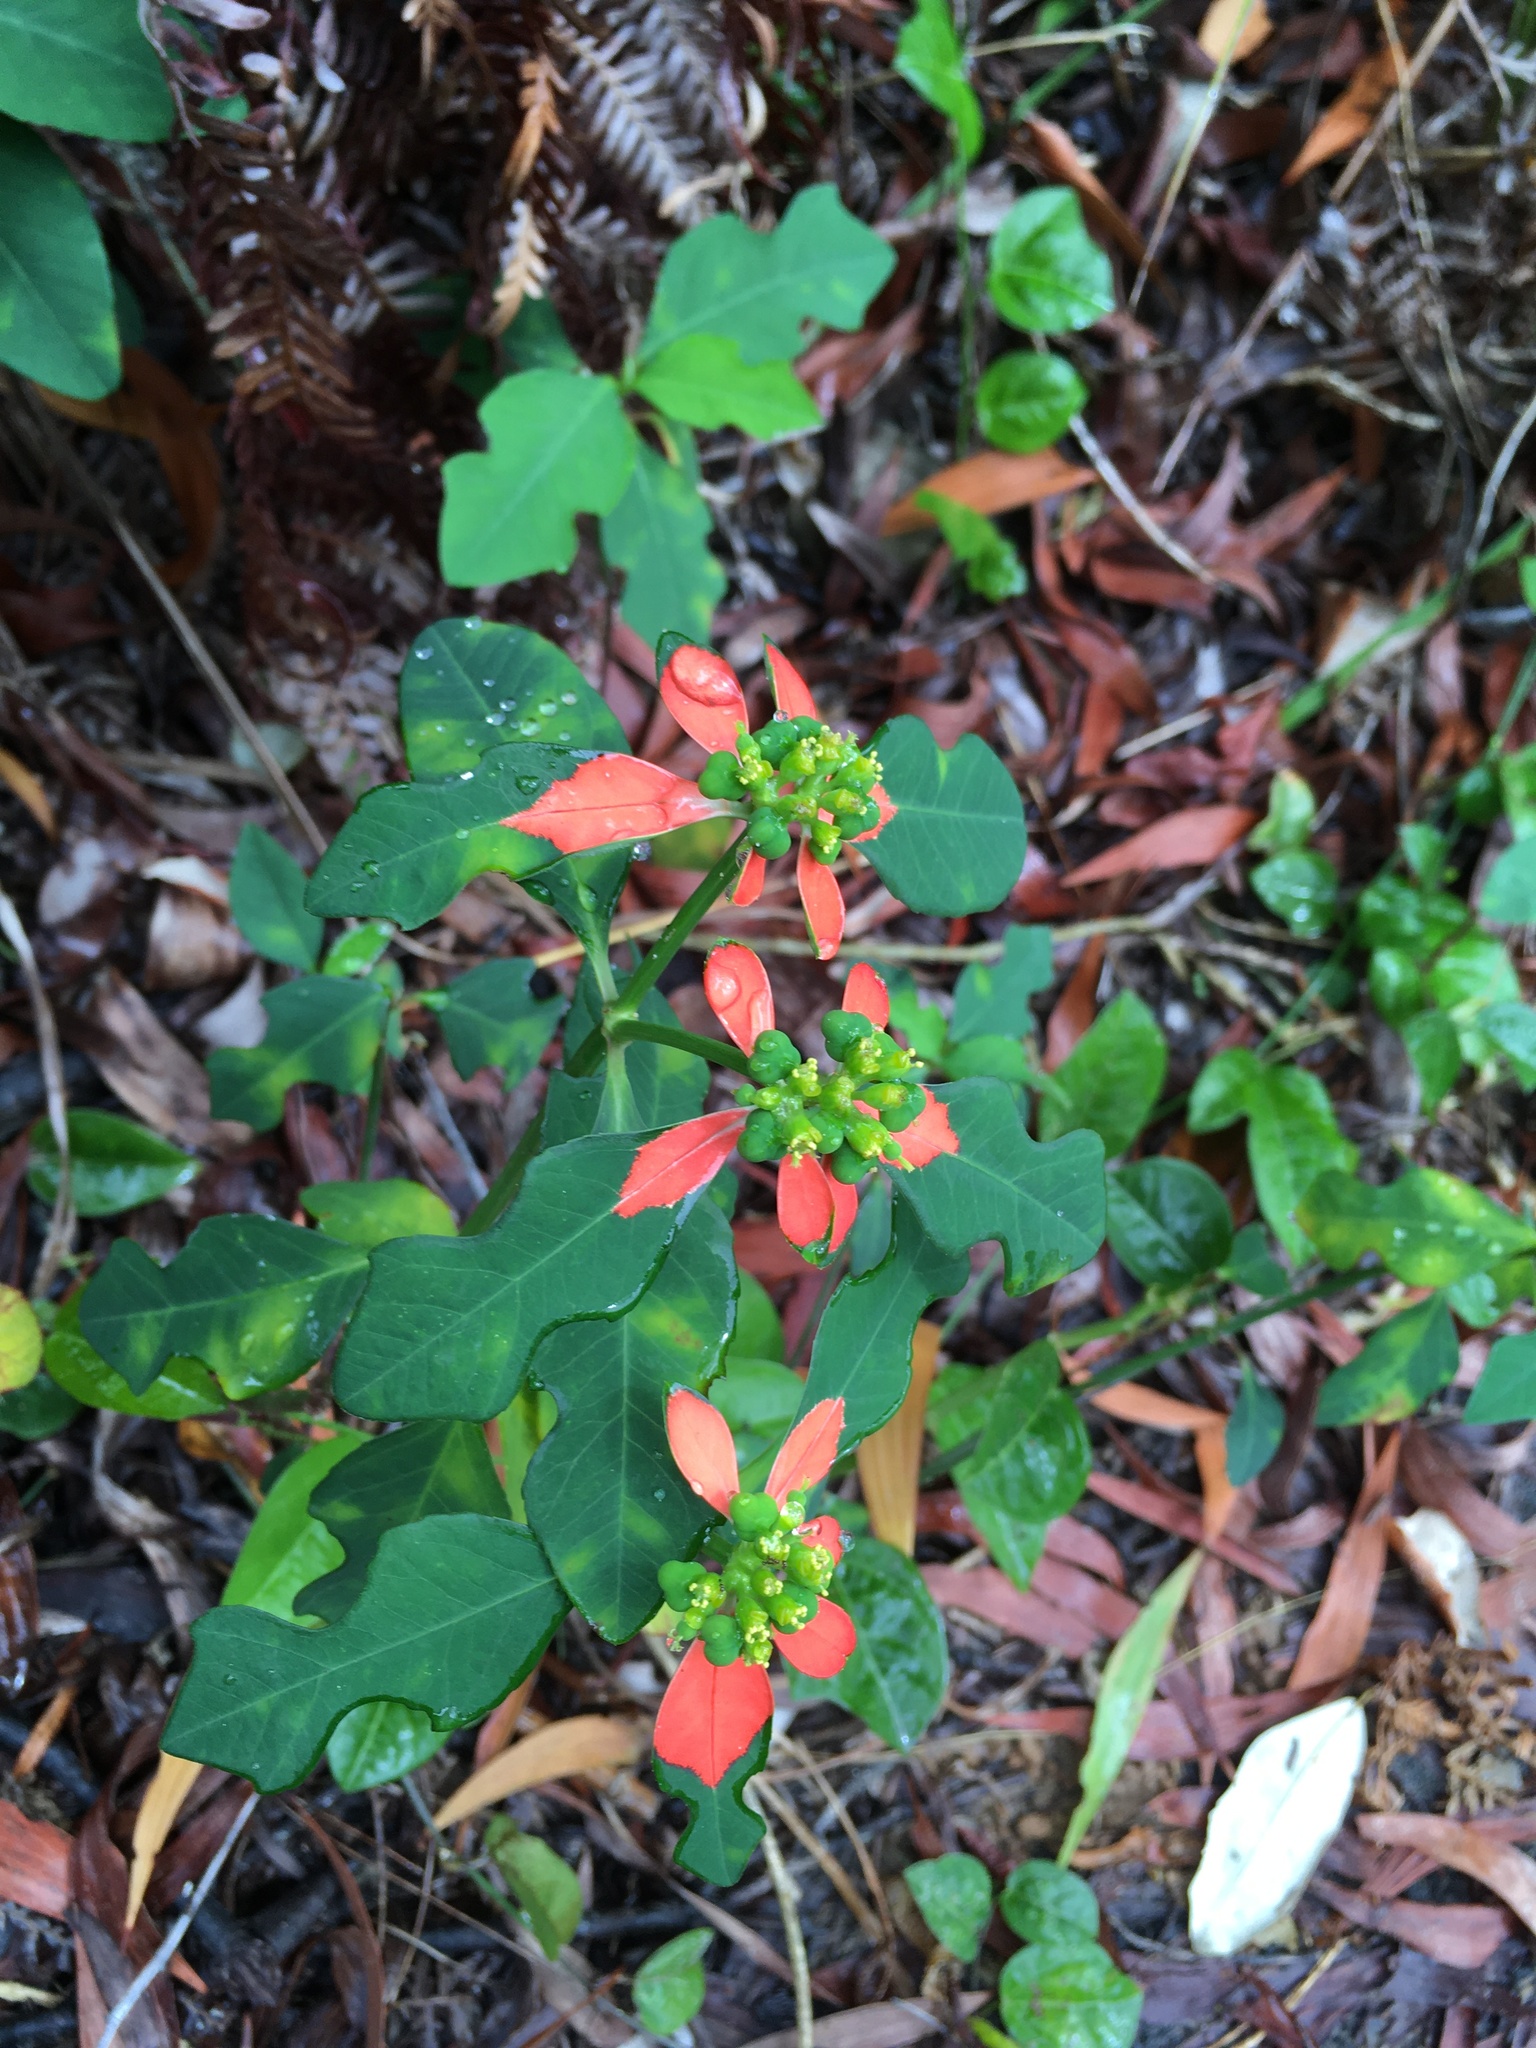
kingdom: Plantae
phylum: Tracheophyta
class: Magnoliopsida
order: Malpighiales
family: Euphorbiaceae
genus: Euphorbia
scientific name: Euphorbia heterophylla
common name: Mexican fireplant
